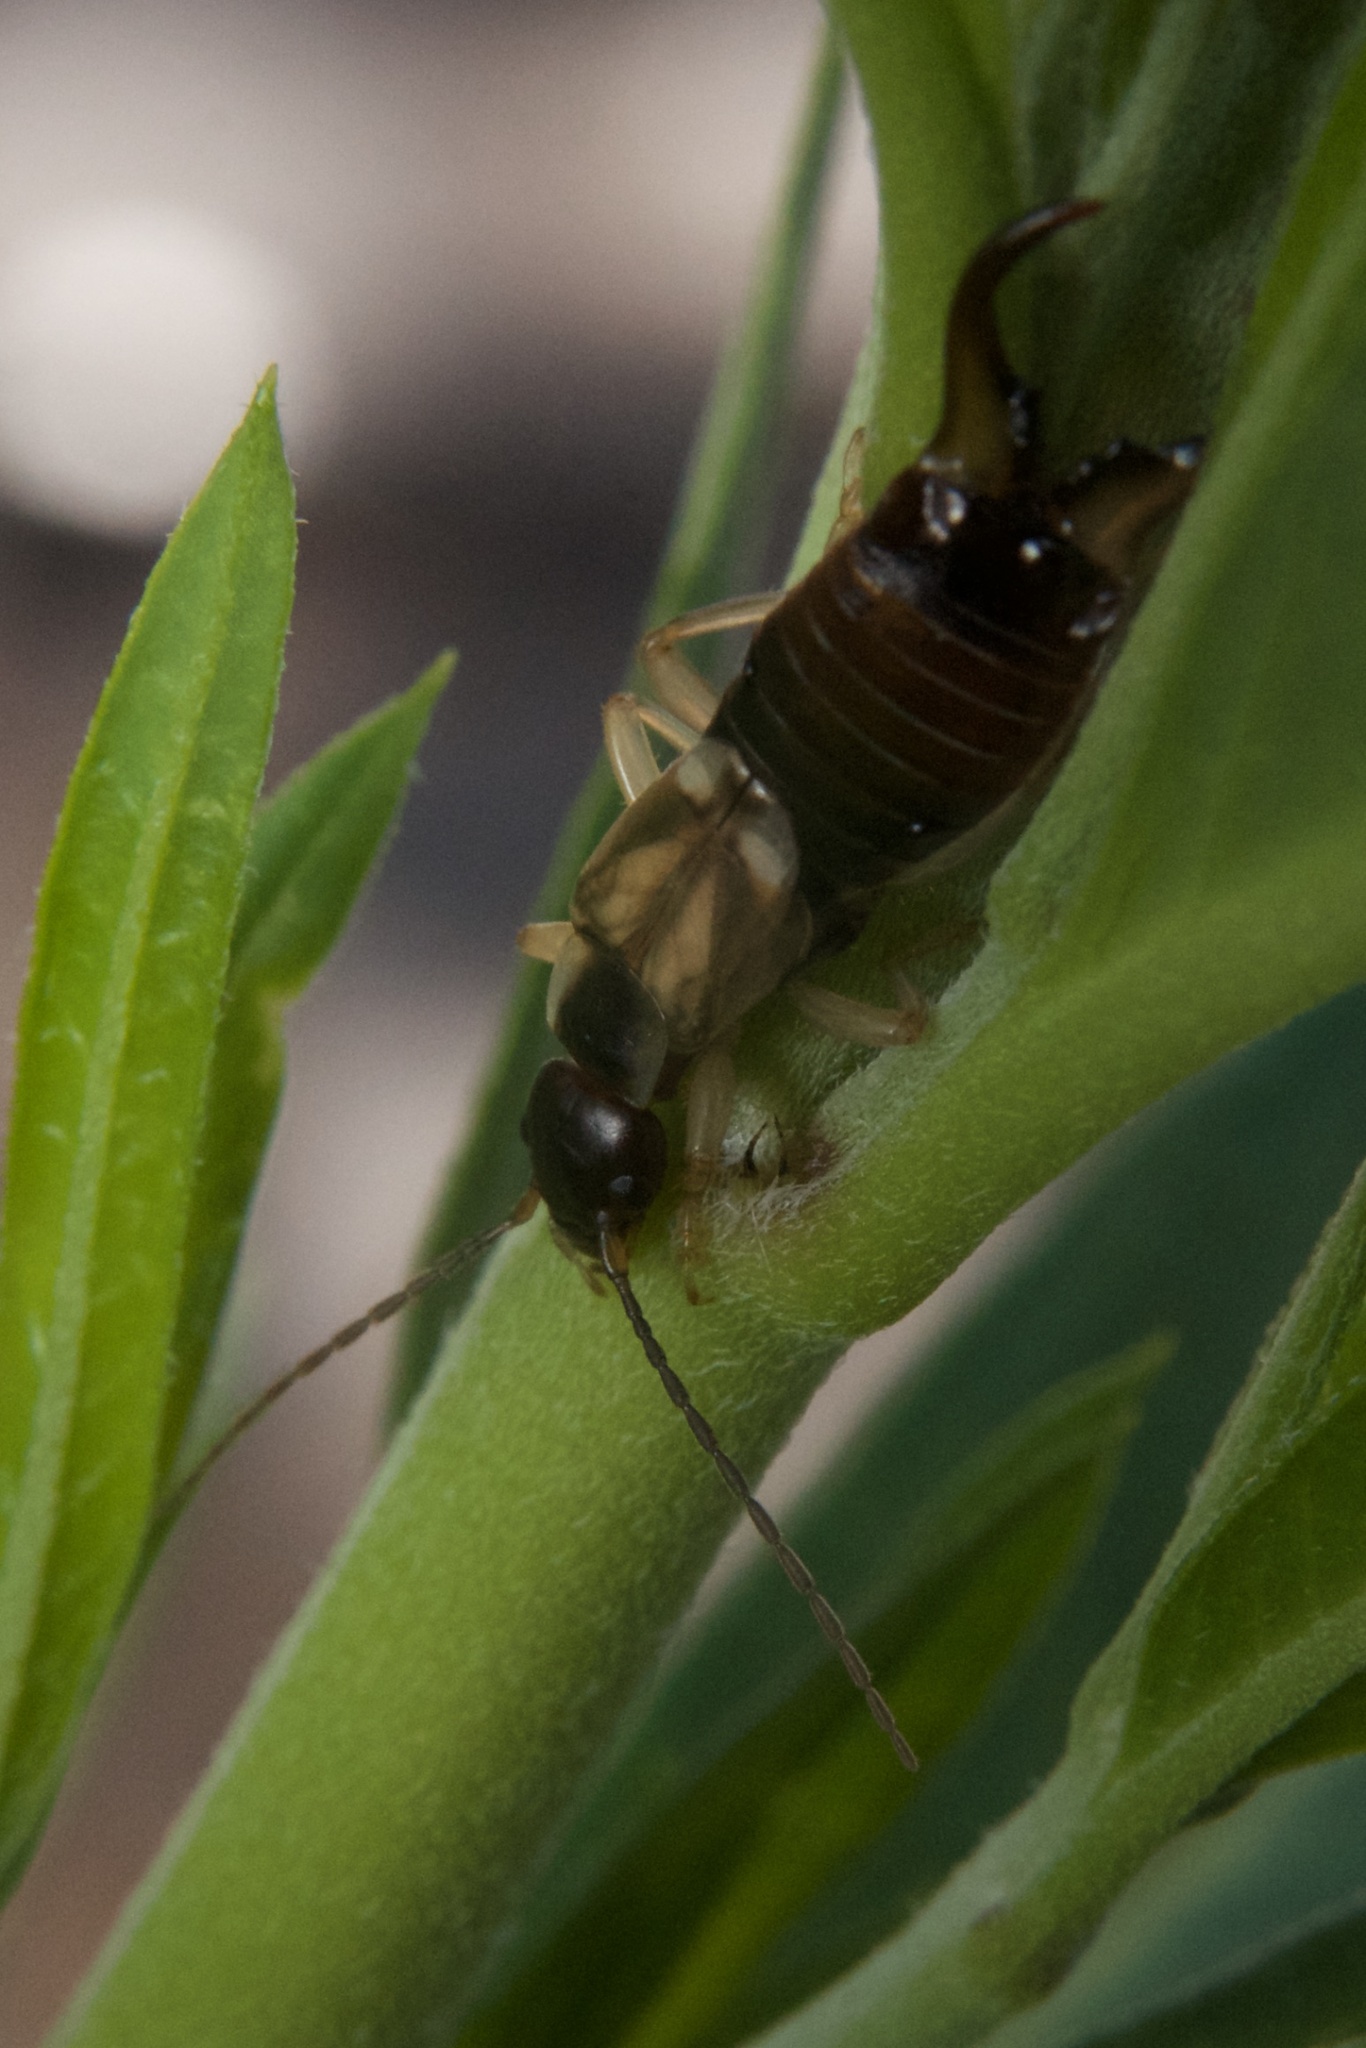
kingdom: Animalia
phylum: Arthropoda
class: Insecta
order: Dermaptera
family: Forficulidae
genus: Forficula
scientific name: Forficula
